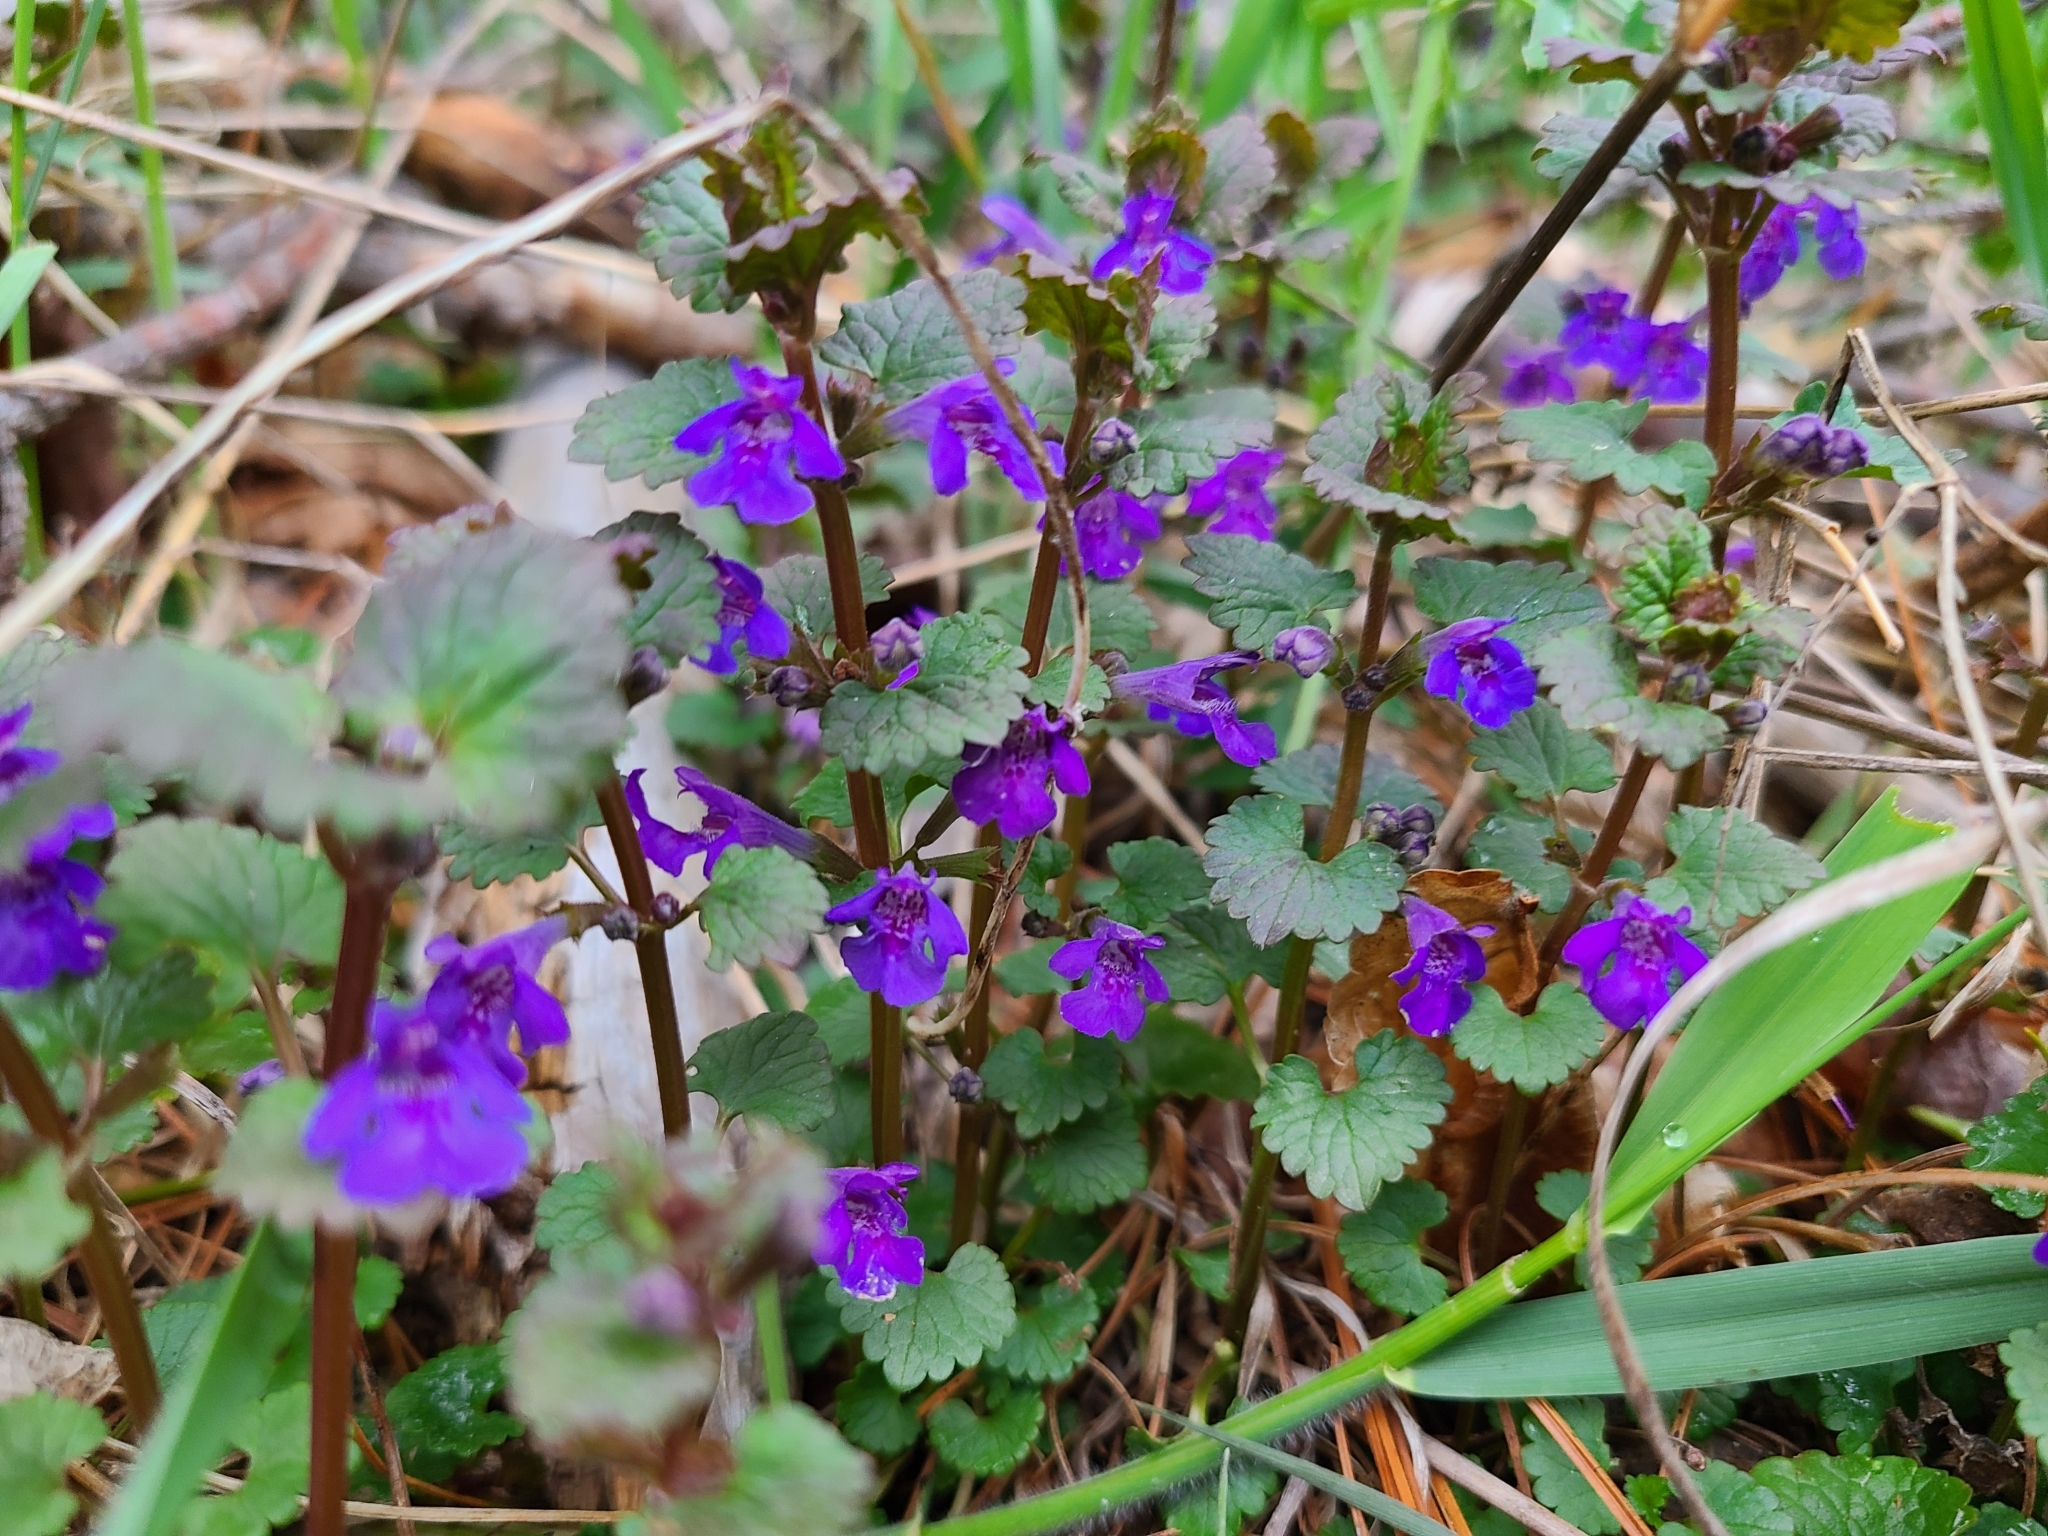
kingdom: Plantae
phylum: Tracheophyta
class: Magnoliopsida
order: Lamiales
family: Lamiaceae
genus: Glechoma
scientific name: Glechoma hederacea
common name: Ground ivy
